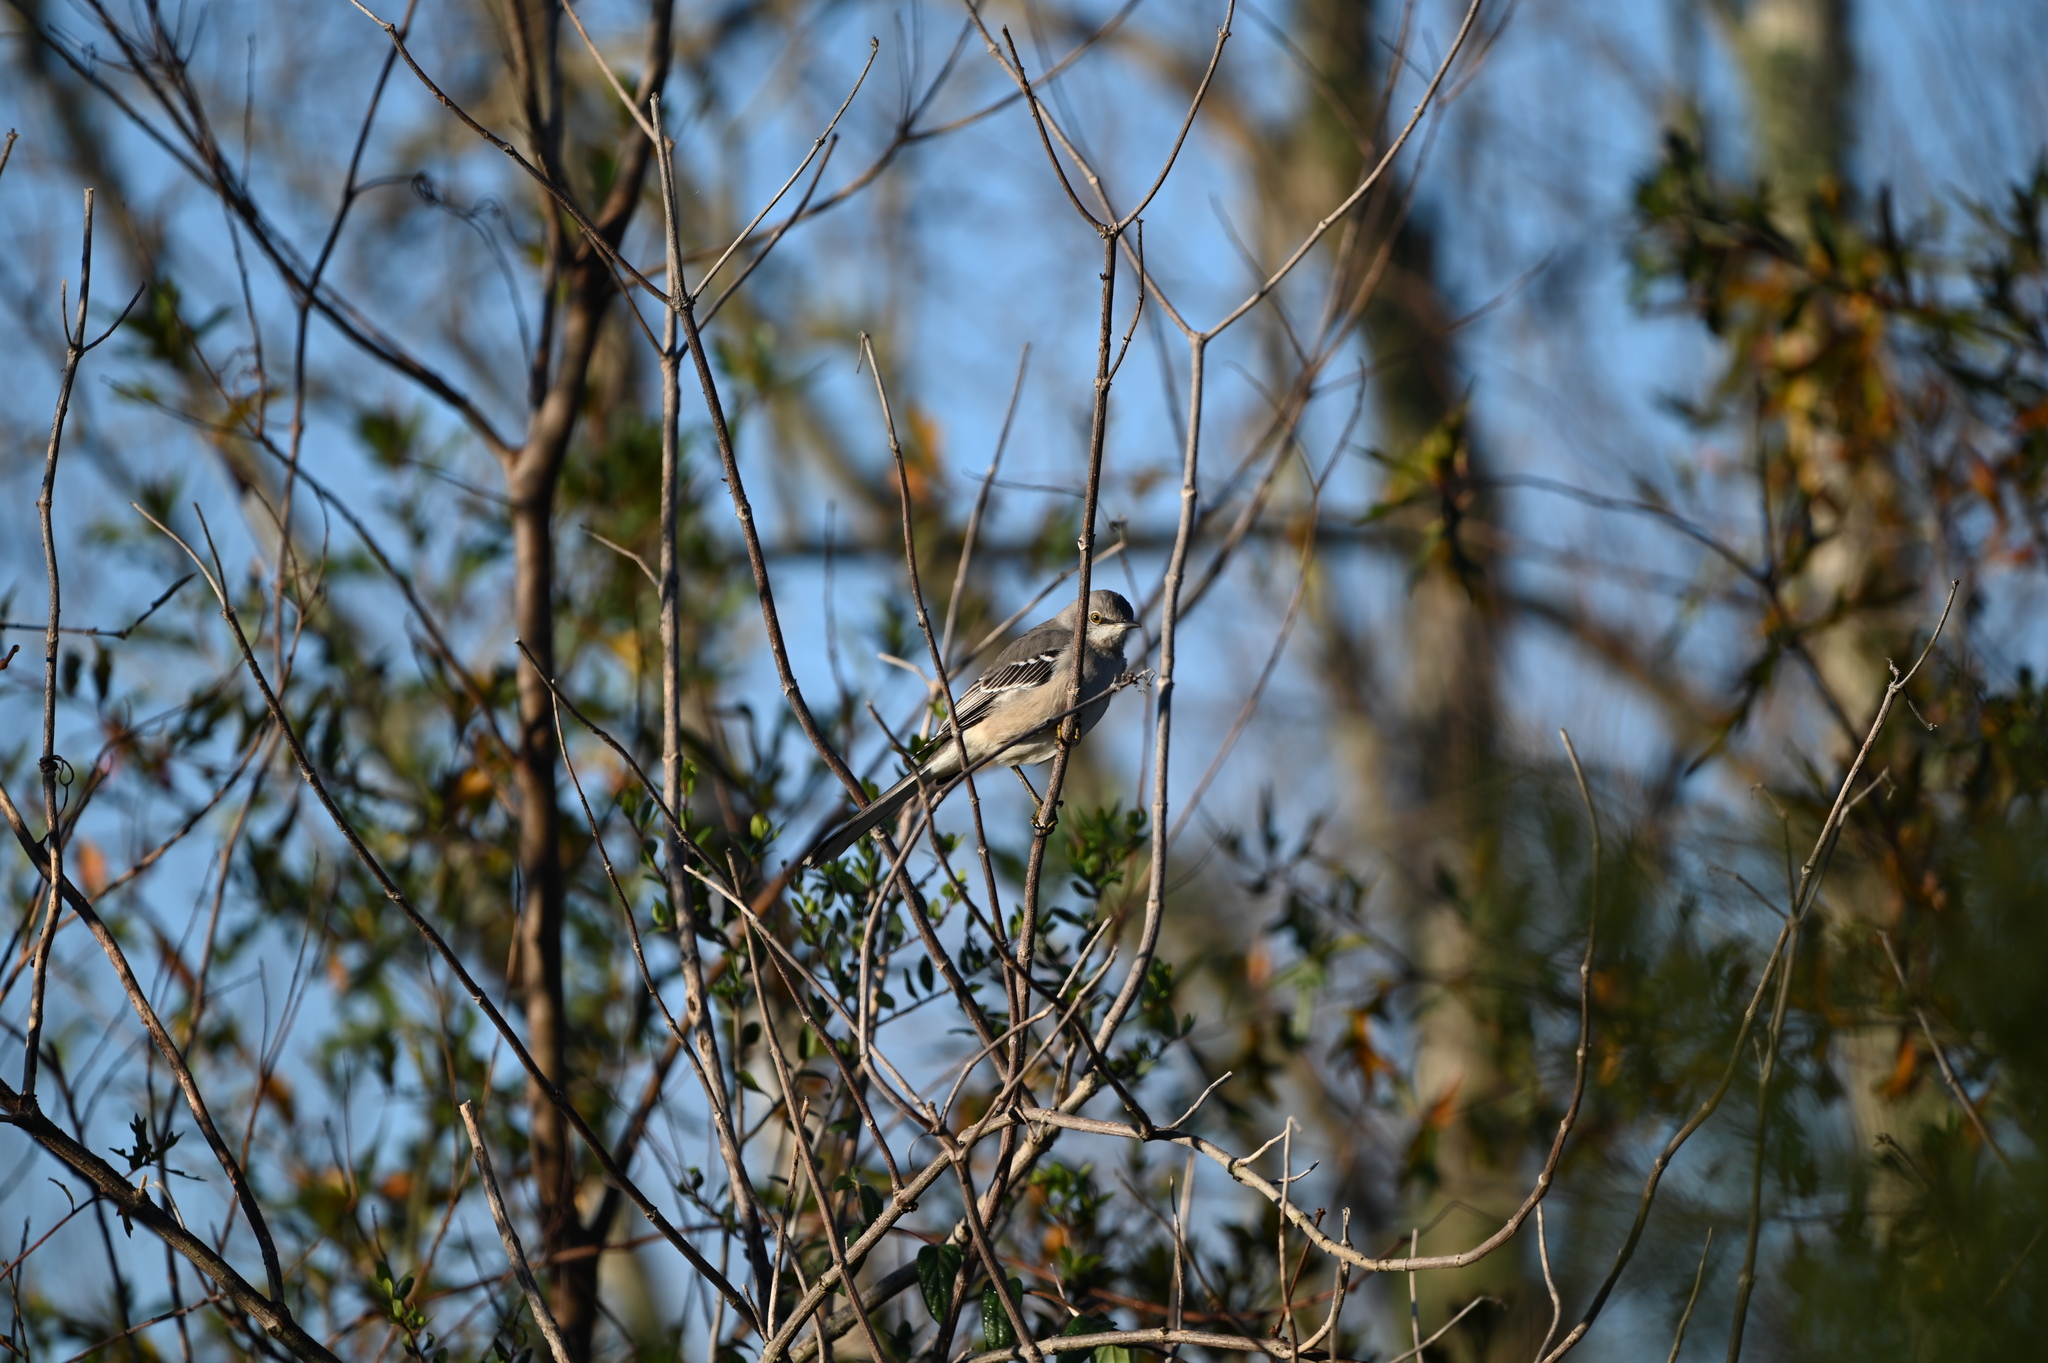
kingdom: Animalia
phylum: Chordata
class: Aves
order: Passeriformes
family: Mimidae
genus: Mimus
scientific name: Mimus polyglottos
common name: Northern mockingbird
